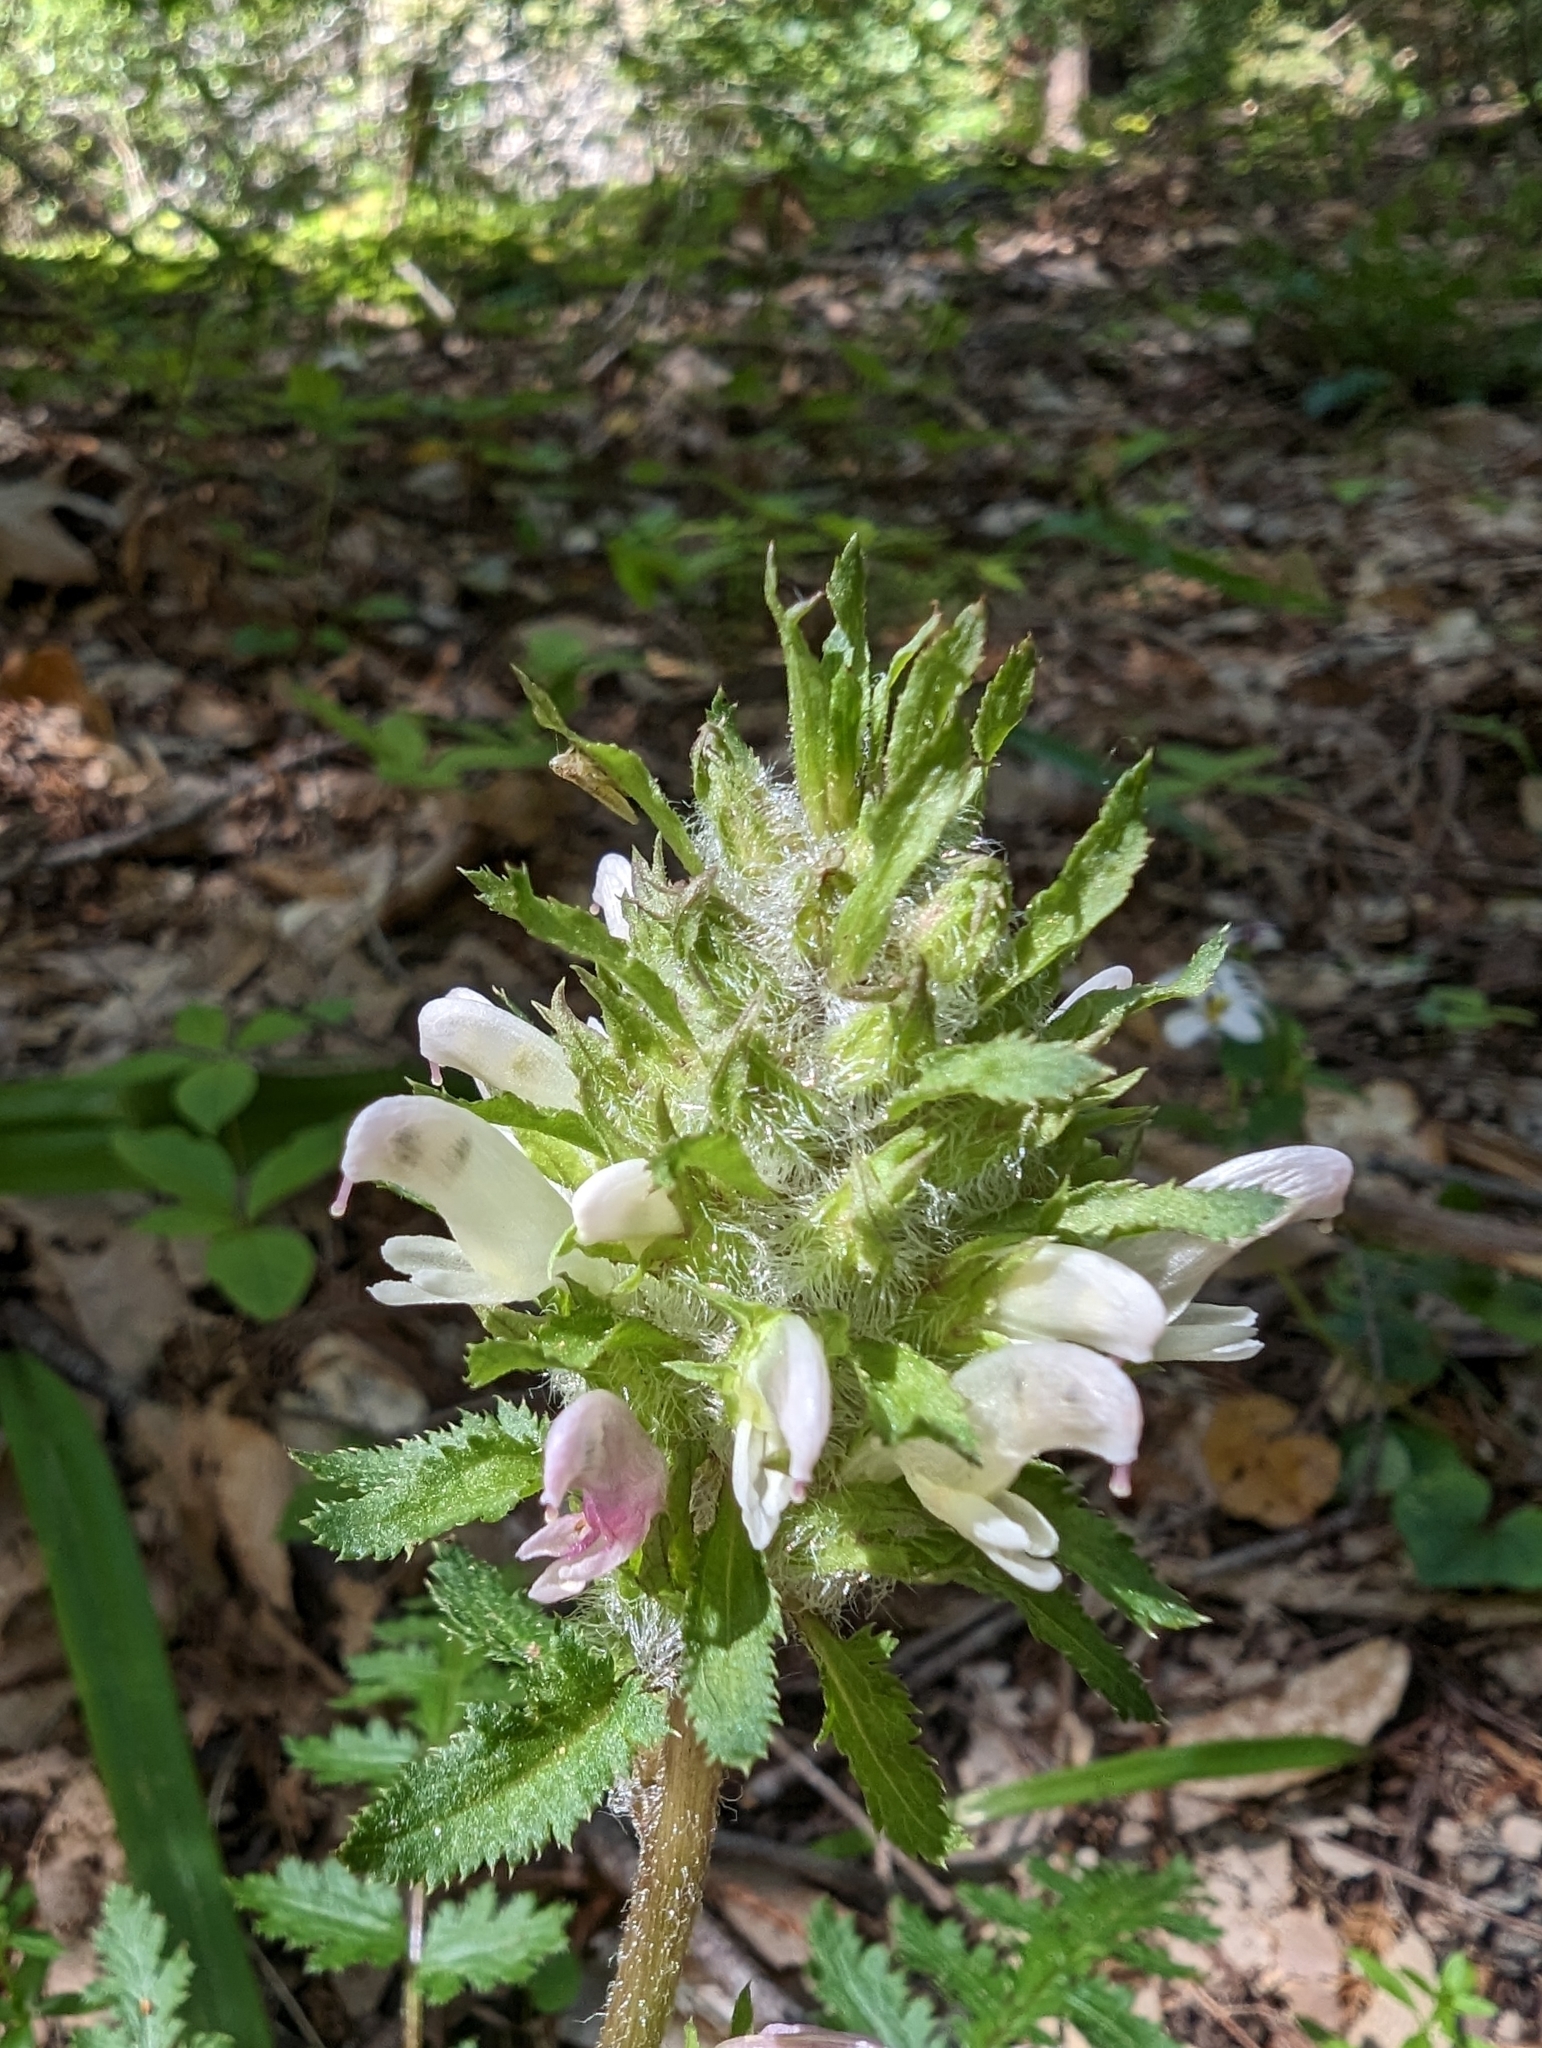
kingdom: Plantae
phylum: Tracheophyta
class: Magnoliopsida
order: Lamiales
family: Orobanchaceae
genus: Pedicularis
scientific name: Pedicularis dudleyi
